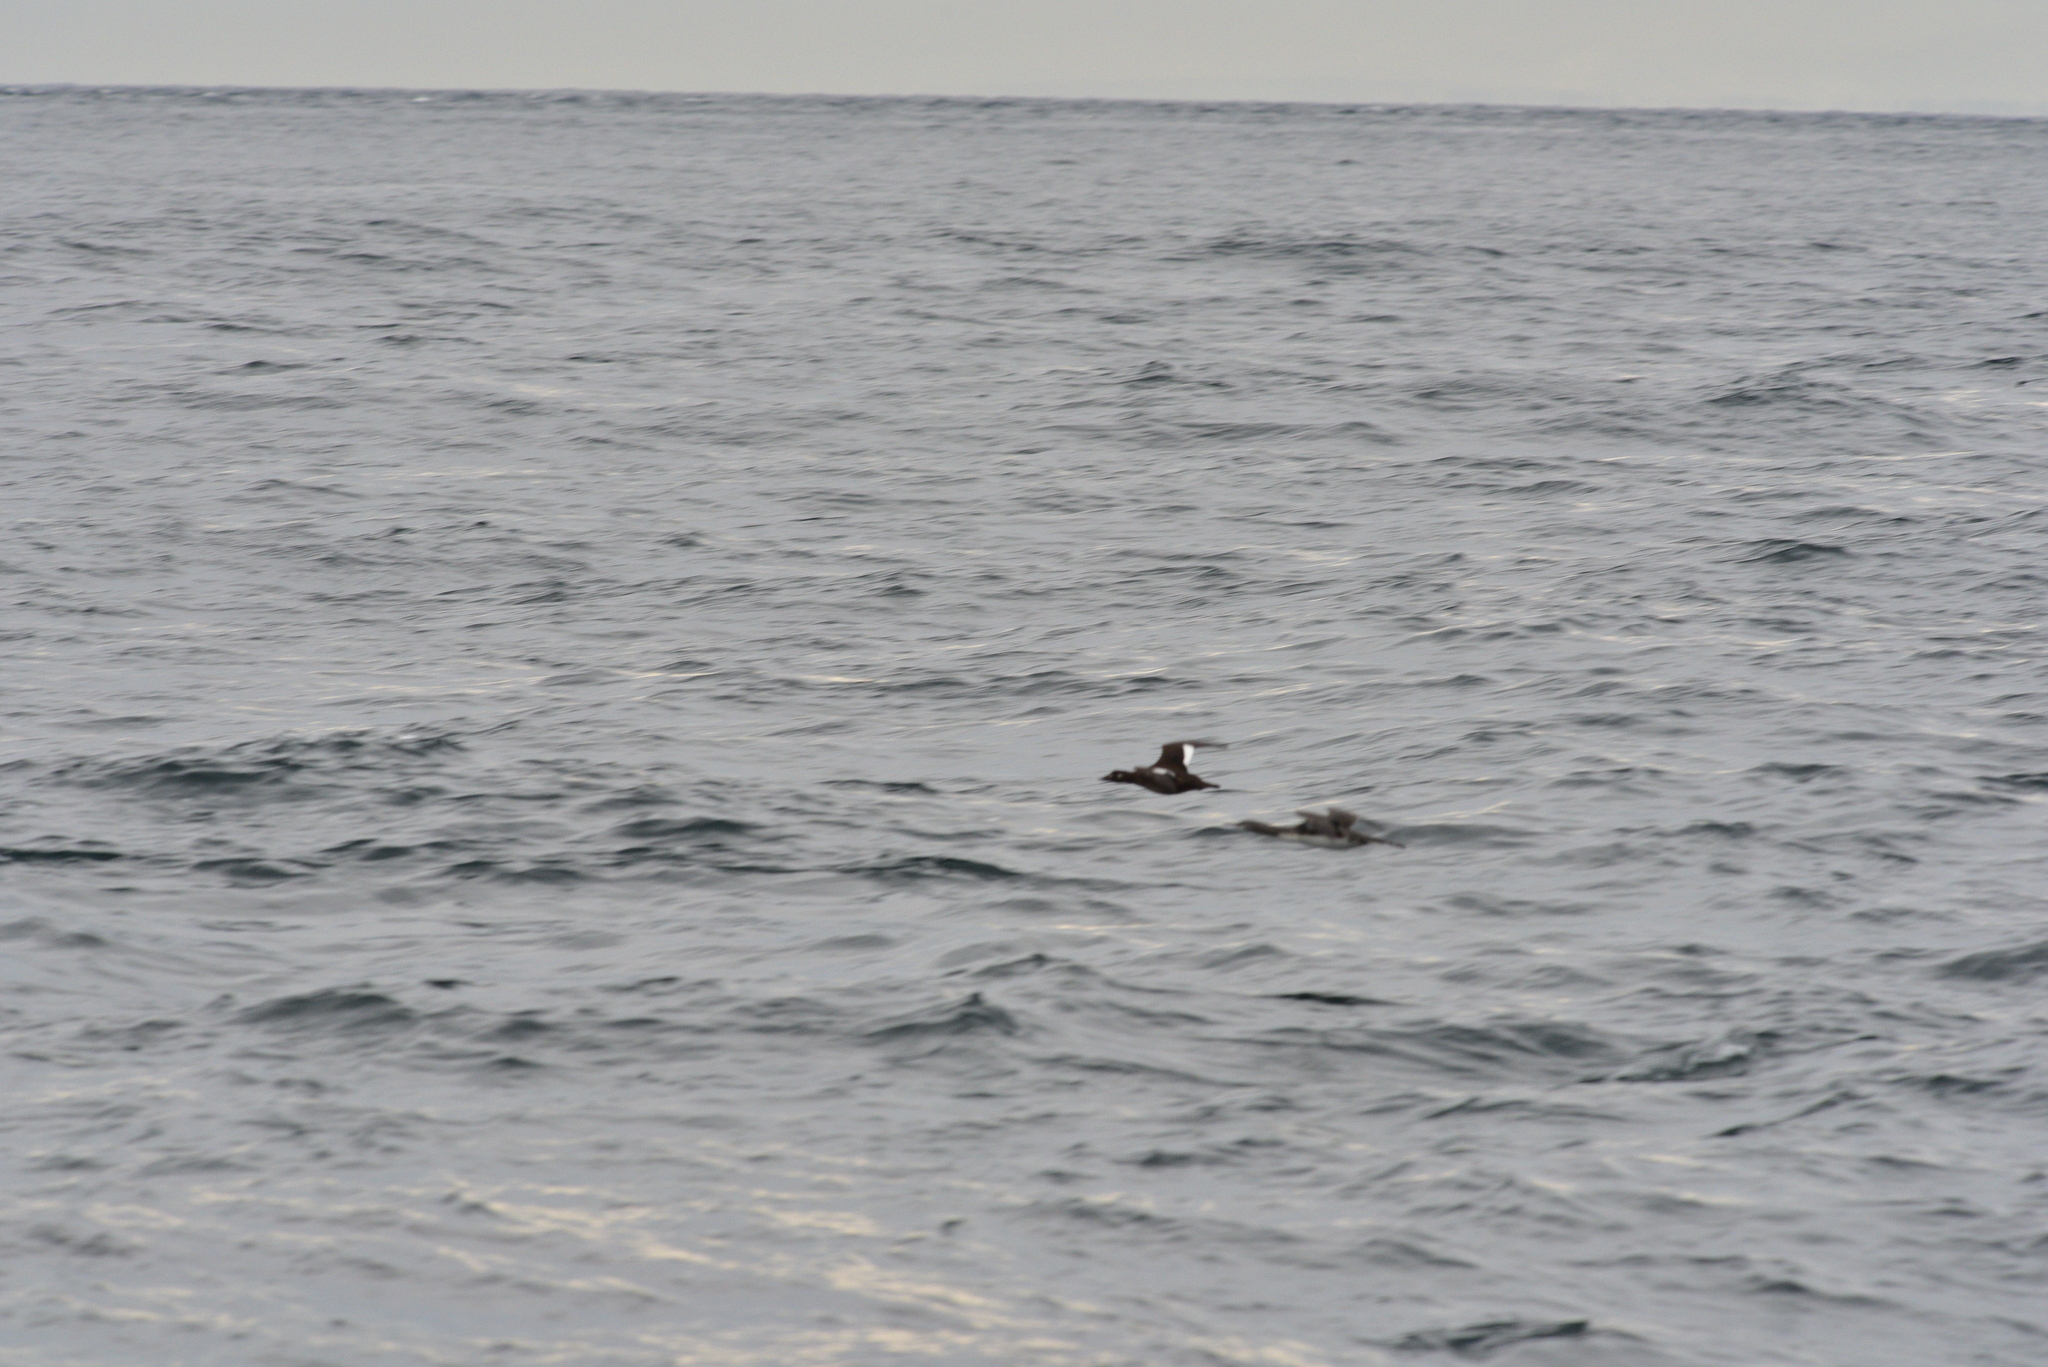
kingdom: Animalia
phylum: Chordata
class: Aves
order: Anseriformes
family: Anatidae
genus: Melanitta
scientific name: Melanitta deglandi
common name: White-winged scoter
